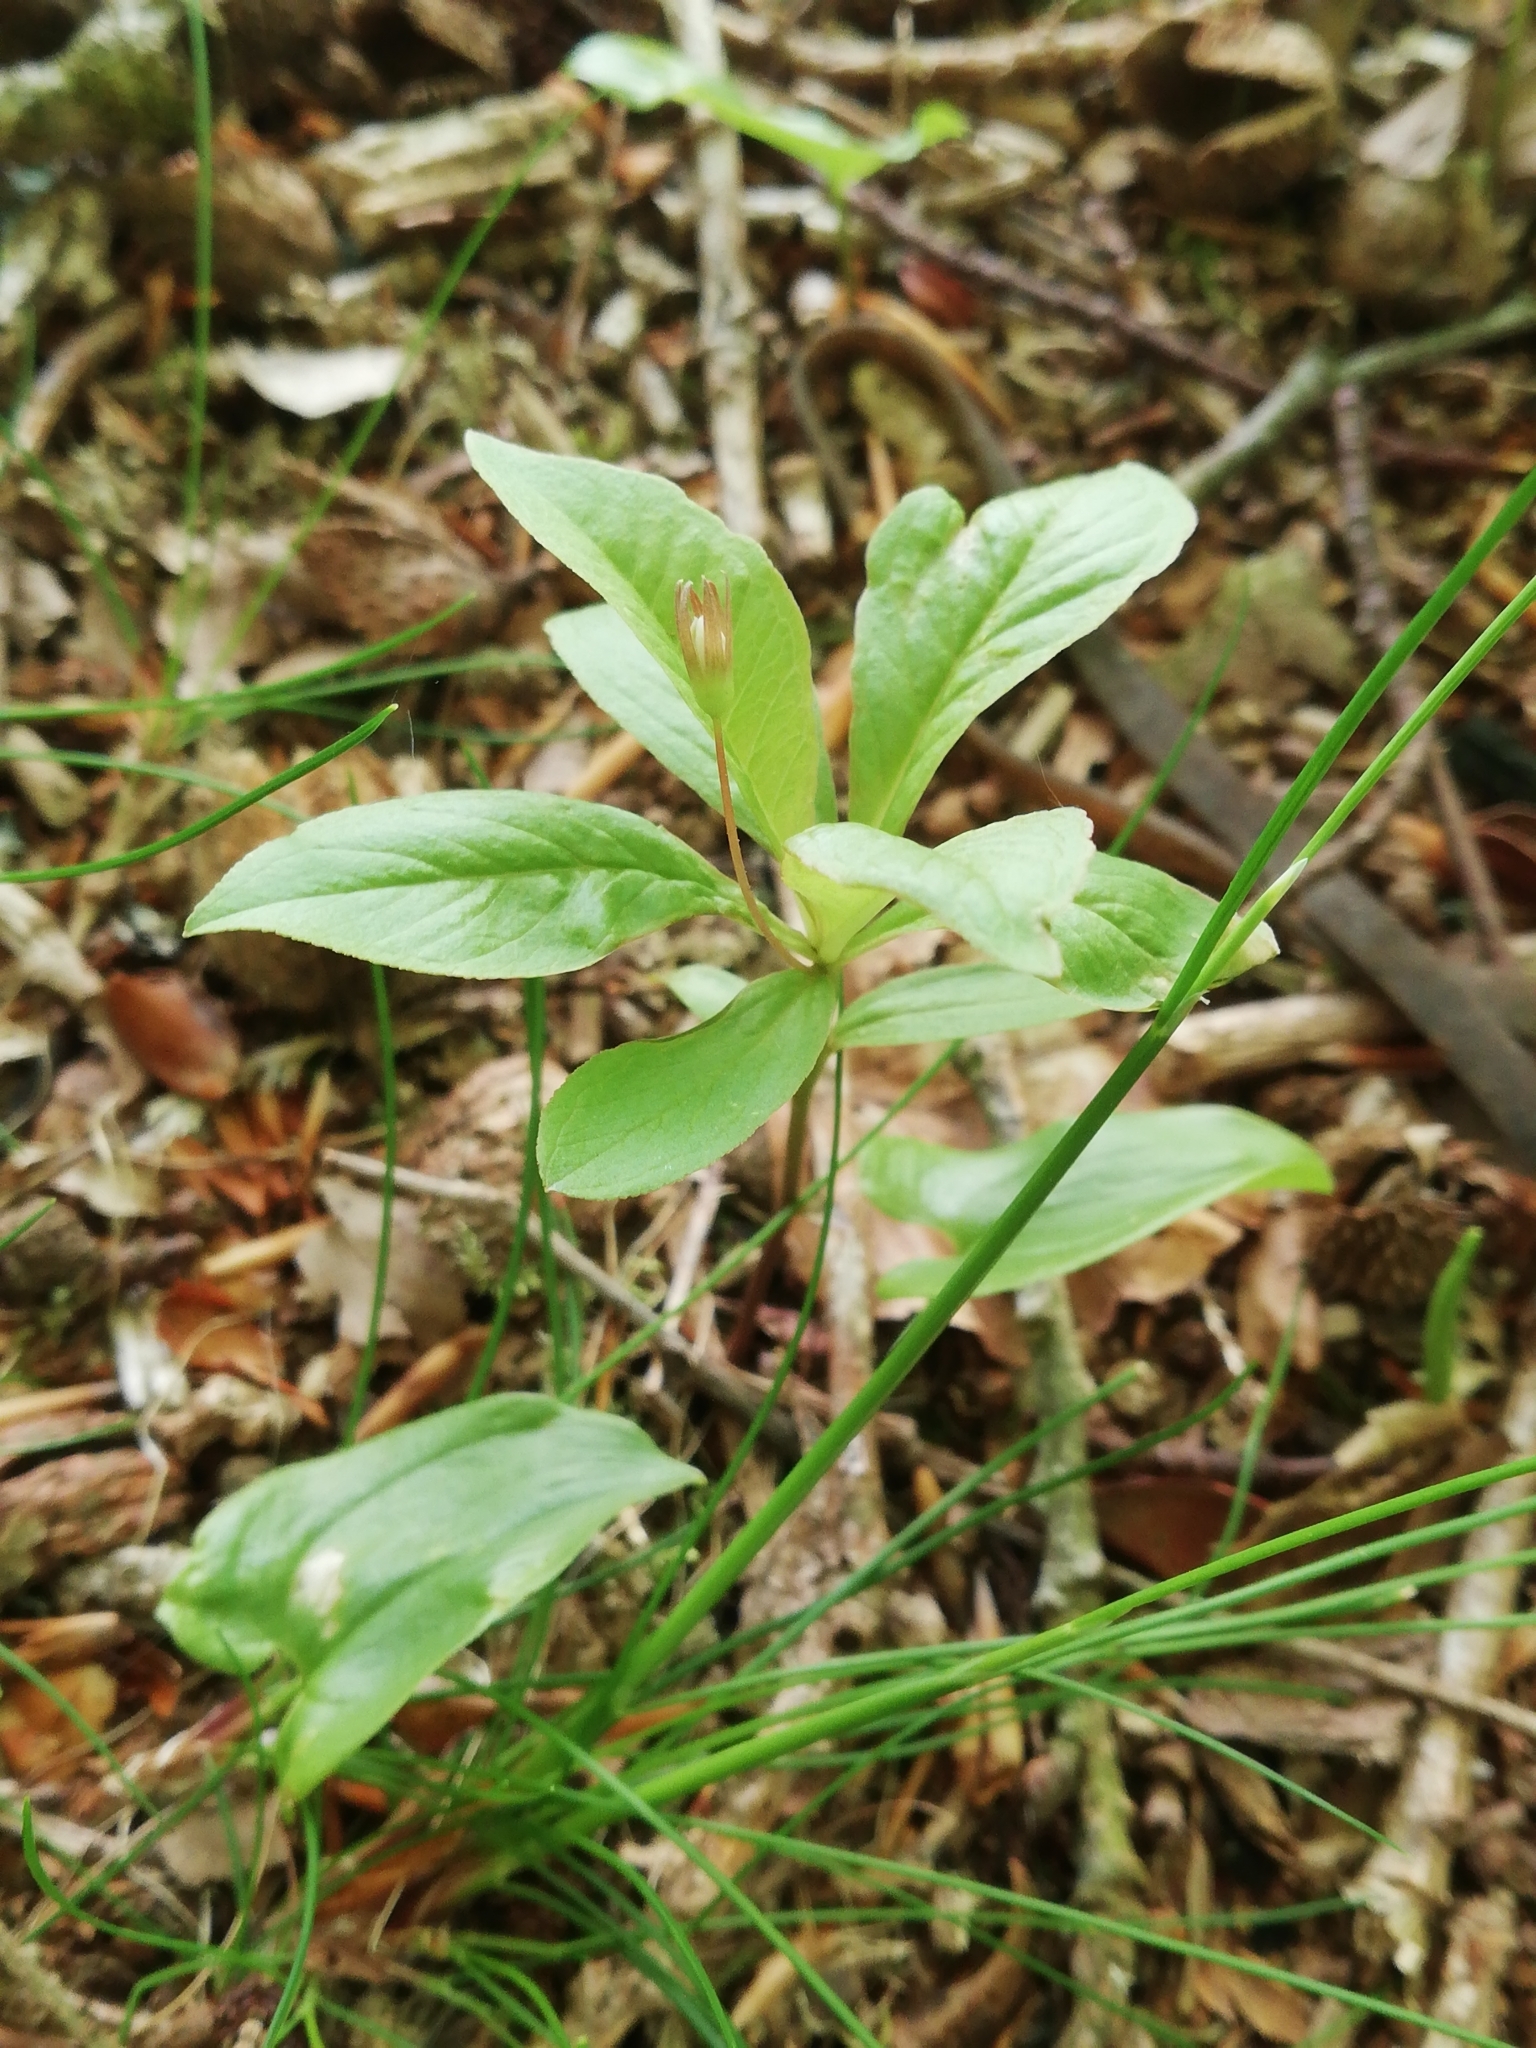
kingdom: Plantae
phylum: Tracheophyta
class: Magnoliopsida
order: Ericales
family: Primulaceae
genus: Lysimachia
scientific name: Lysimachia europaea
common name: Arctic starflower
